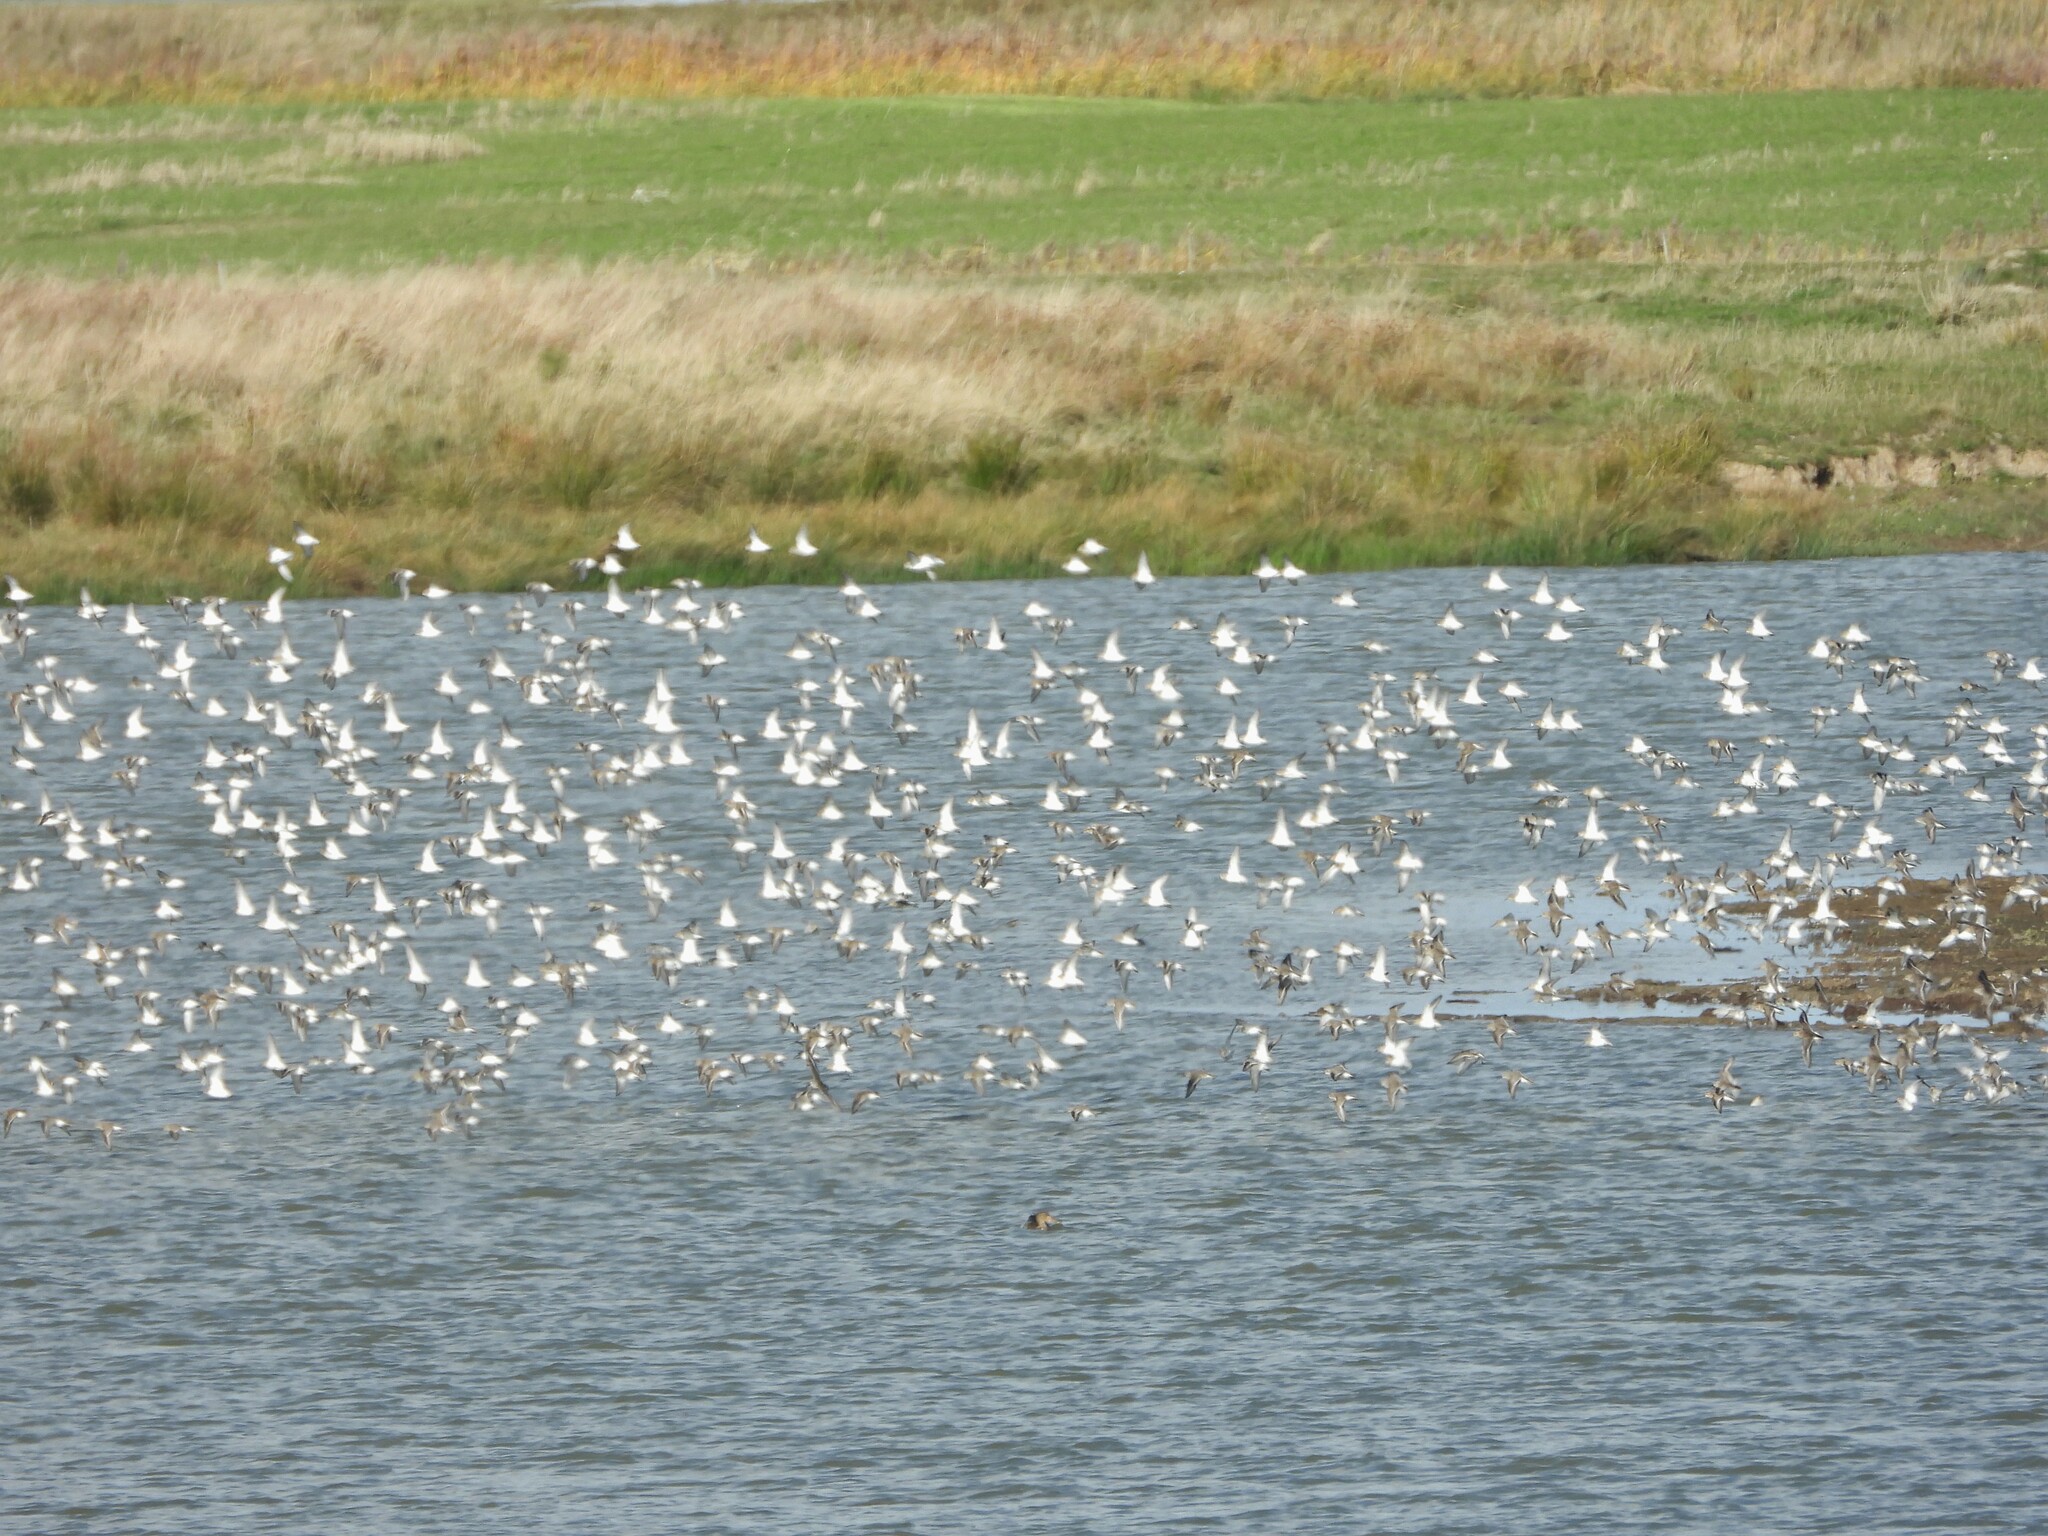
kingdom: Animalia
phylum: Chordata
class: Aves
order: Charadriiformes
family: Scolopacidae
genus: Calidris
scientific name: Calidris alpina
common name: Dunlin
